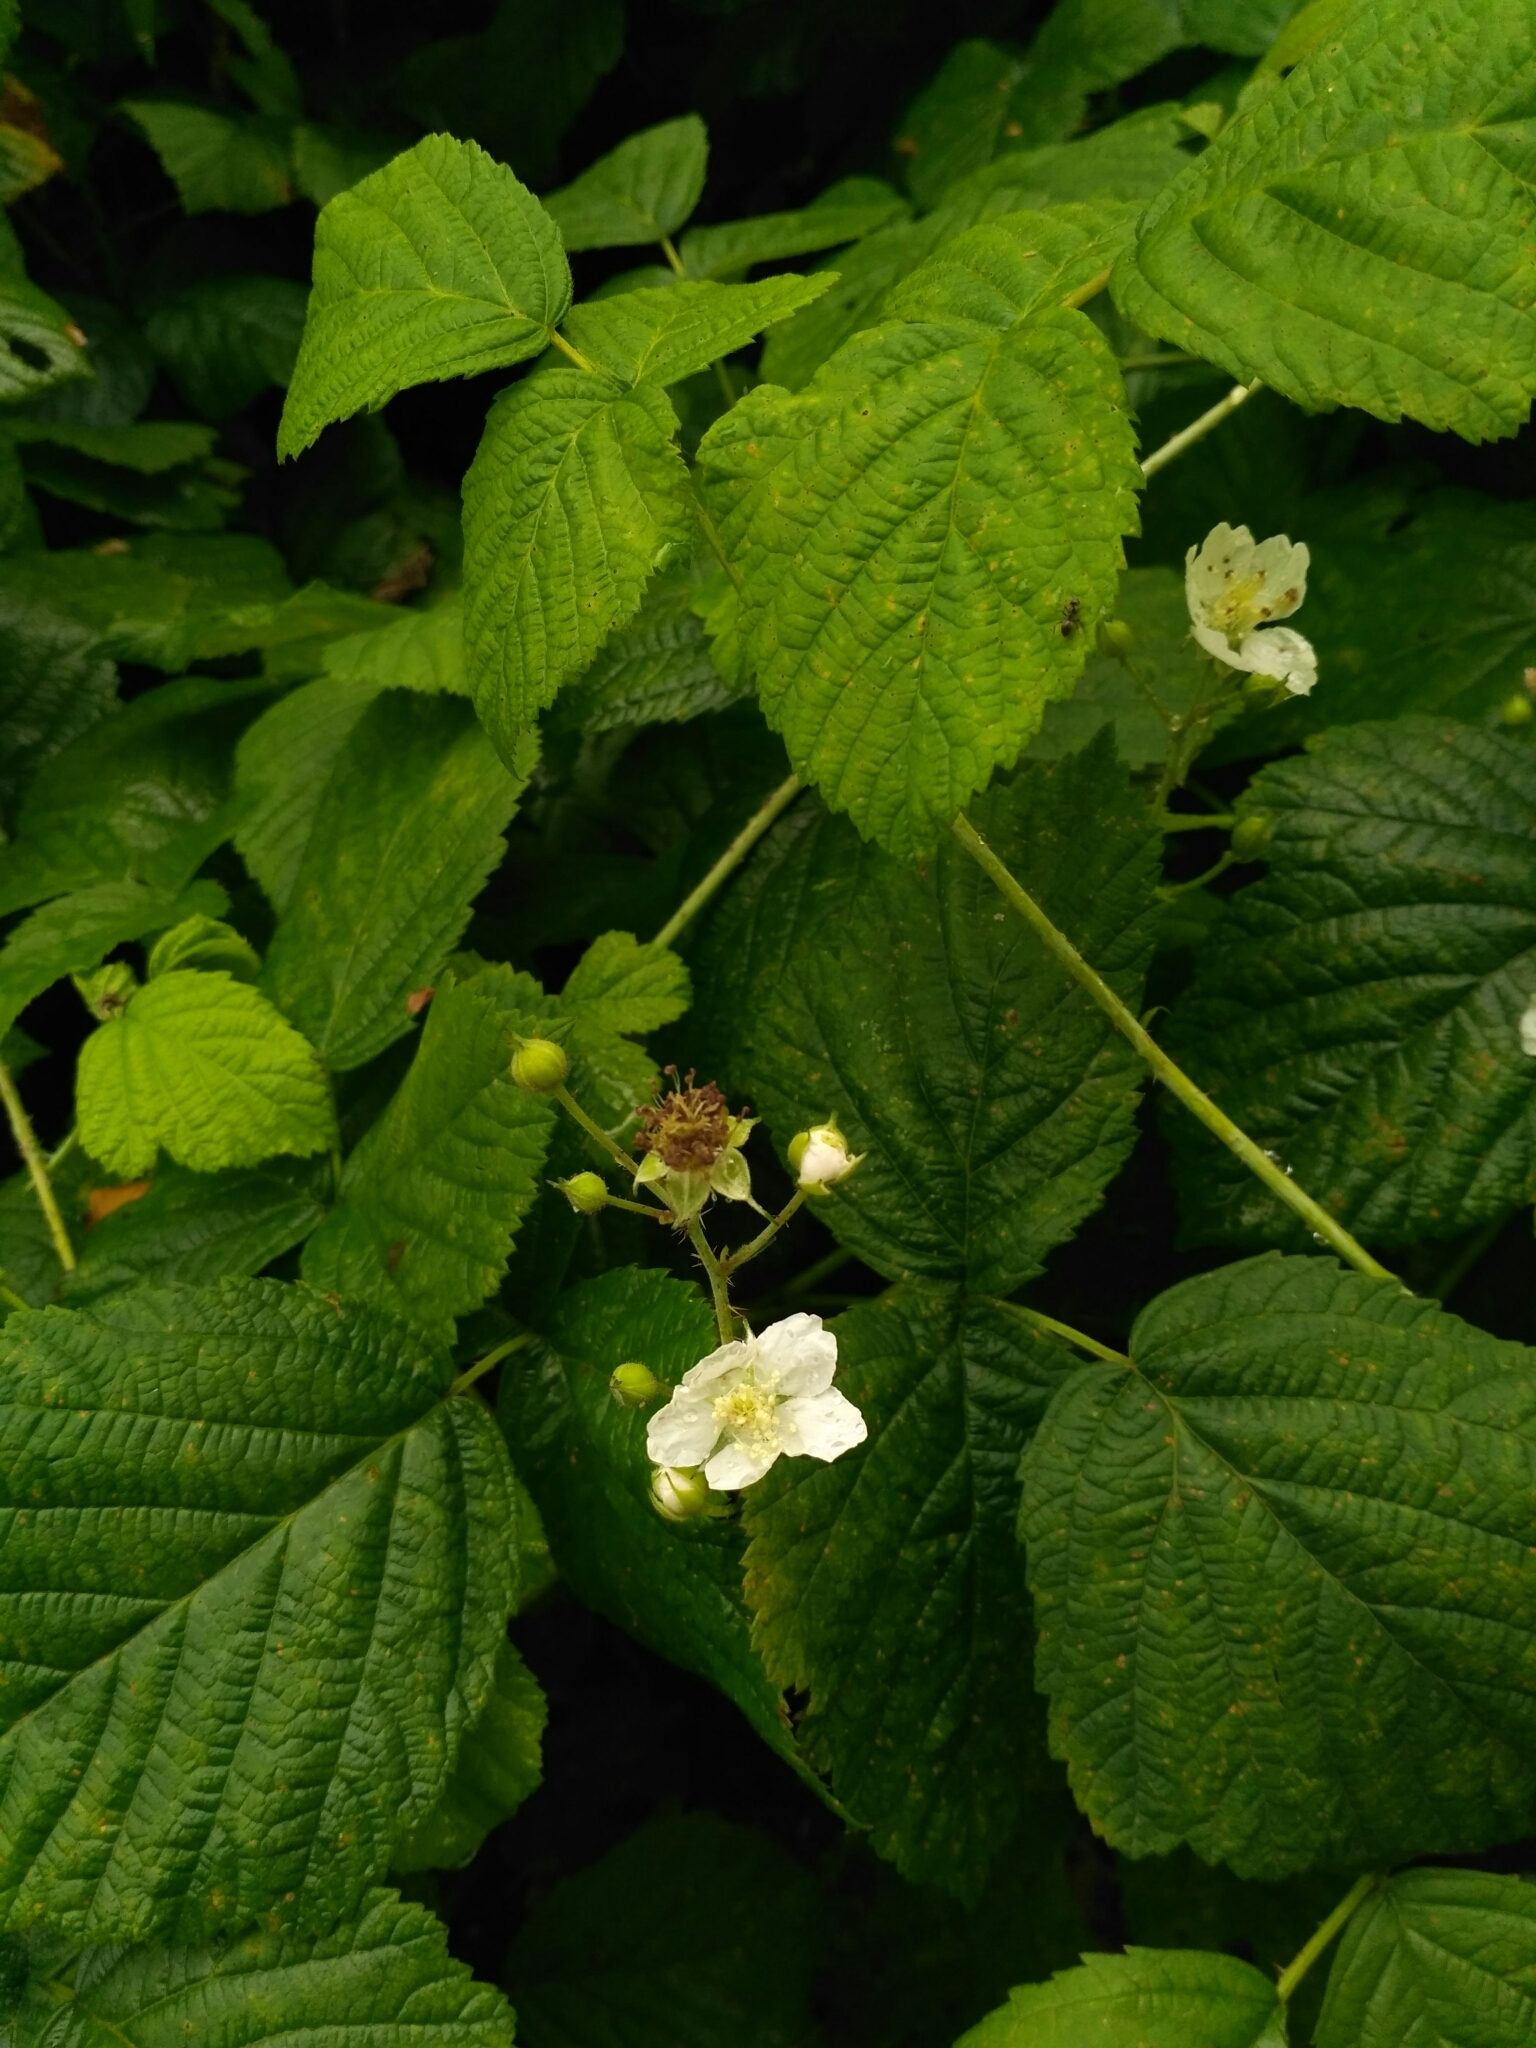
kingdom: Plantae
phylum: Tracheophyta
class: Magnoliopsida
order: Rosales
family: Rosaceae
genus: Rubus
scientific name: Rubus caesius
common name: Dewberry
